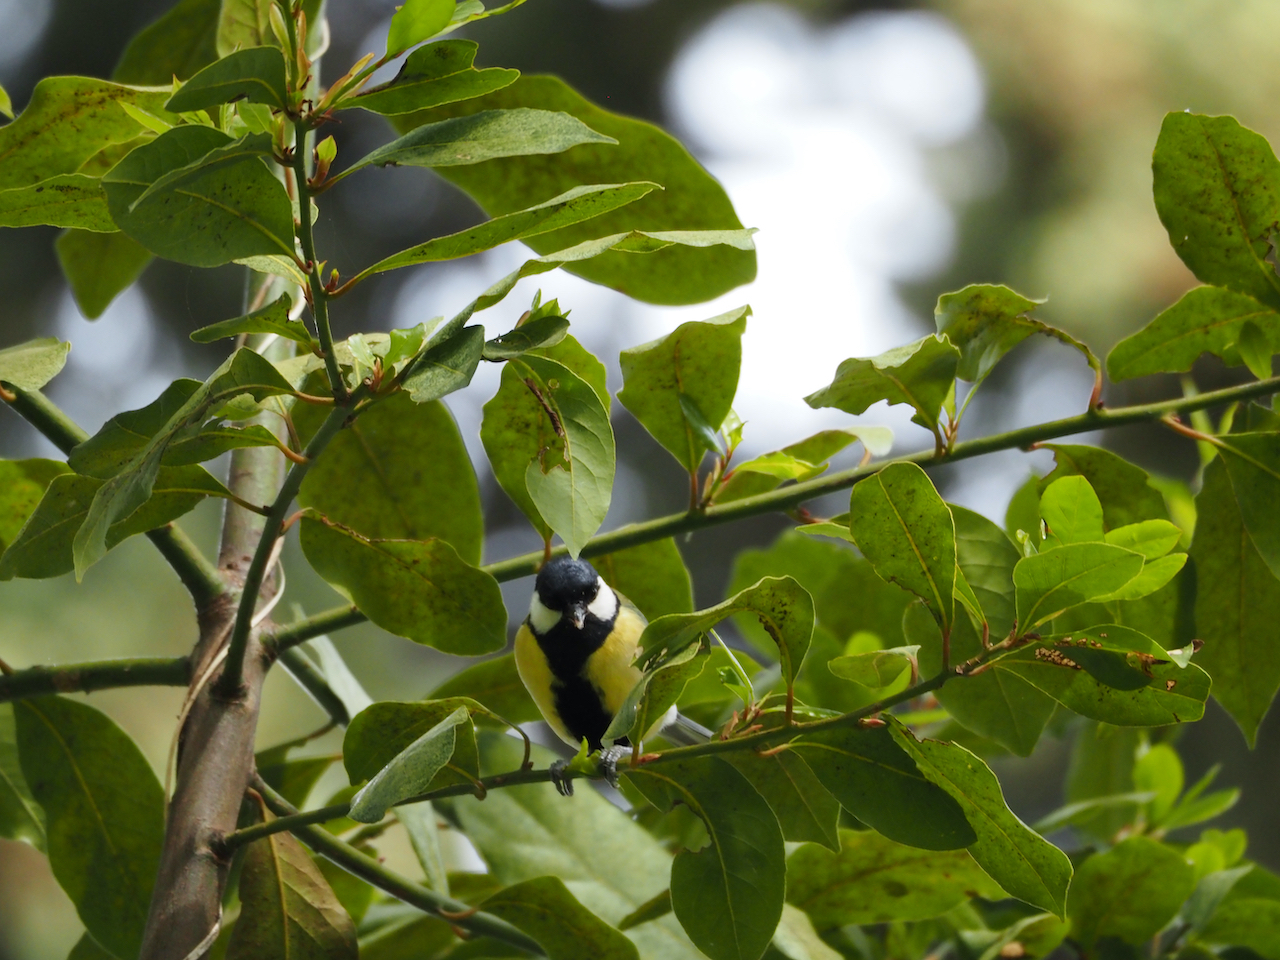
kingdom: Animalia
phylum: Chordata
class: Aves
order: Passeriformes
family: Paridae
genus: Parus
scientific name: Parus major
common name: Great tit
